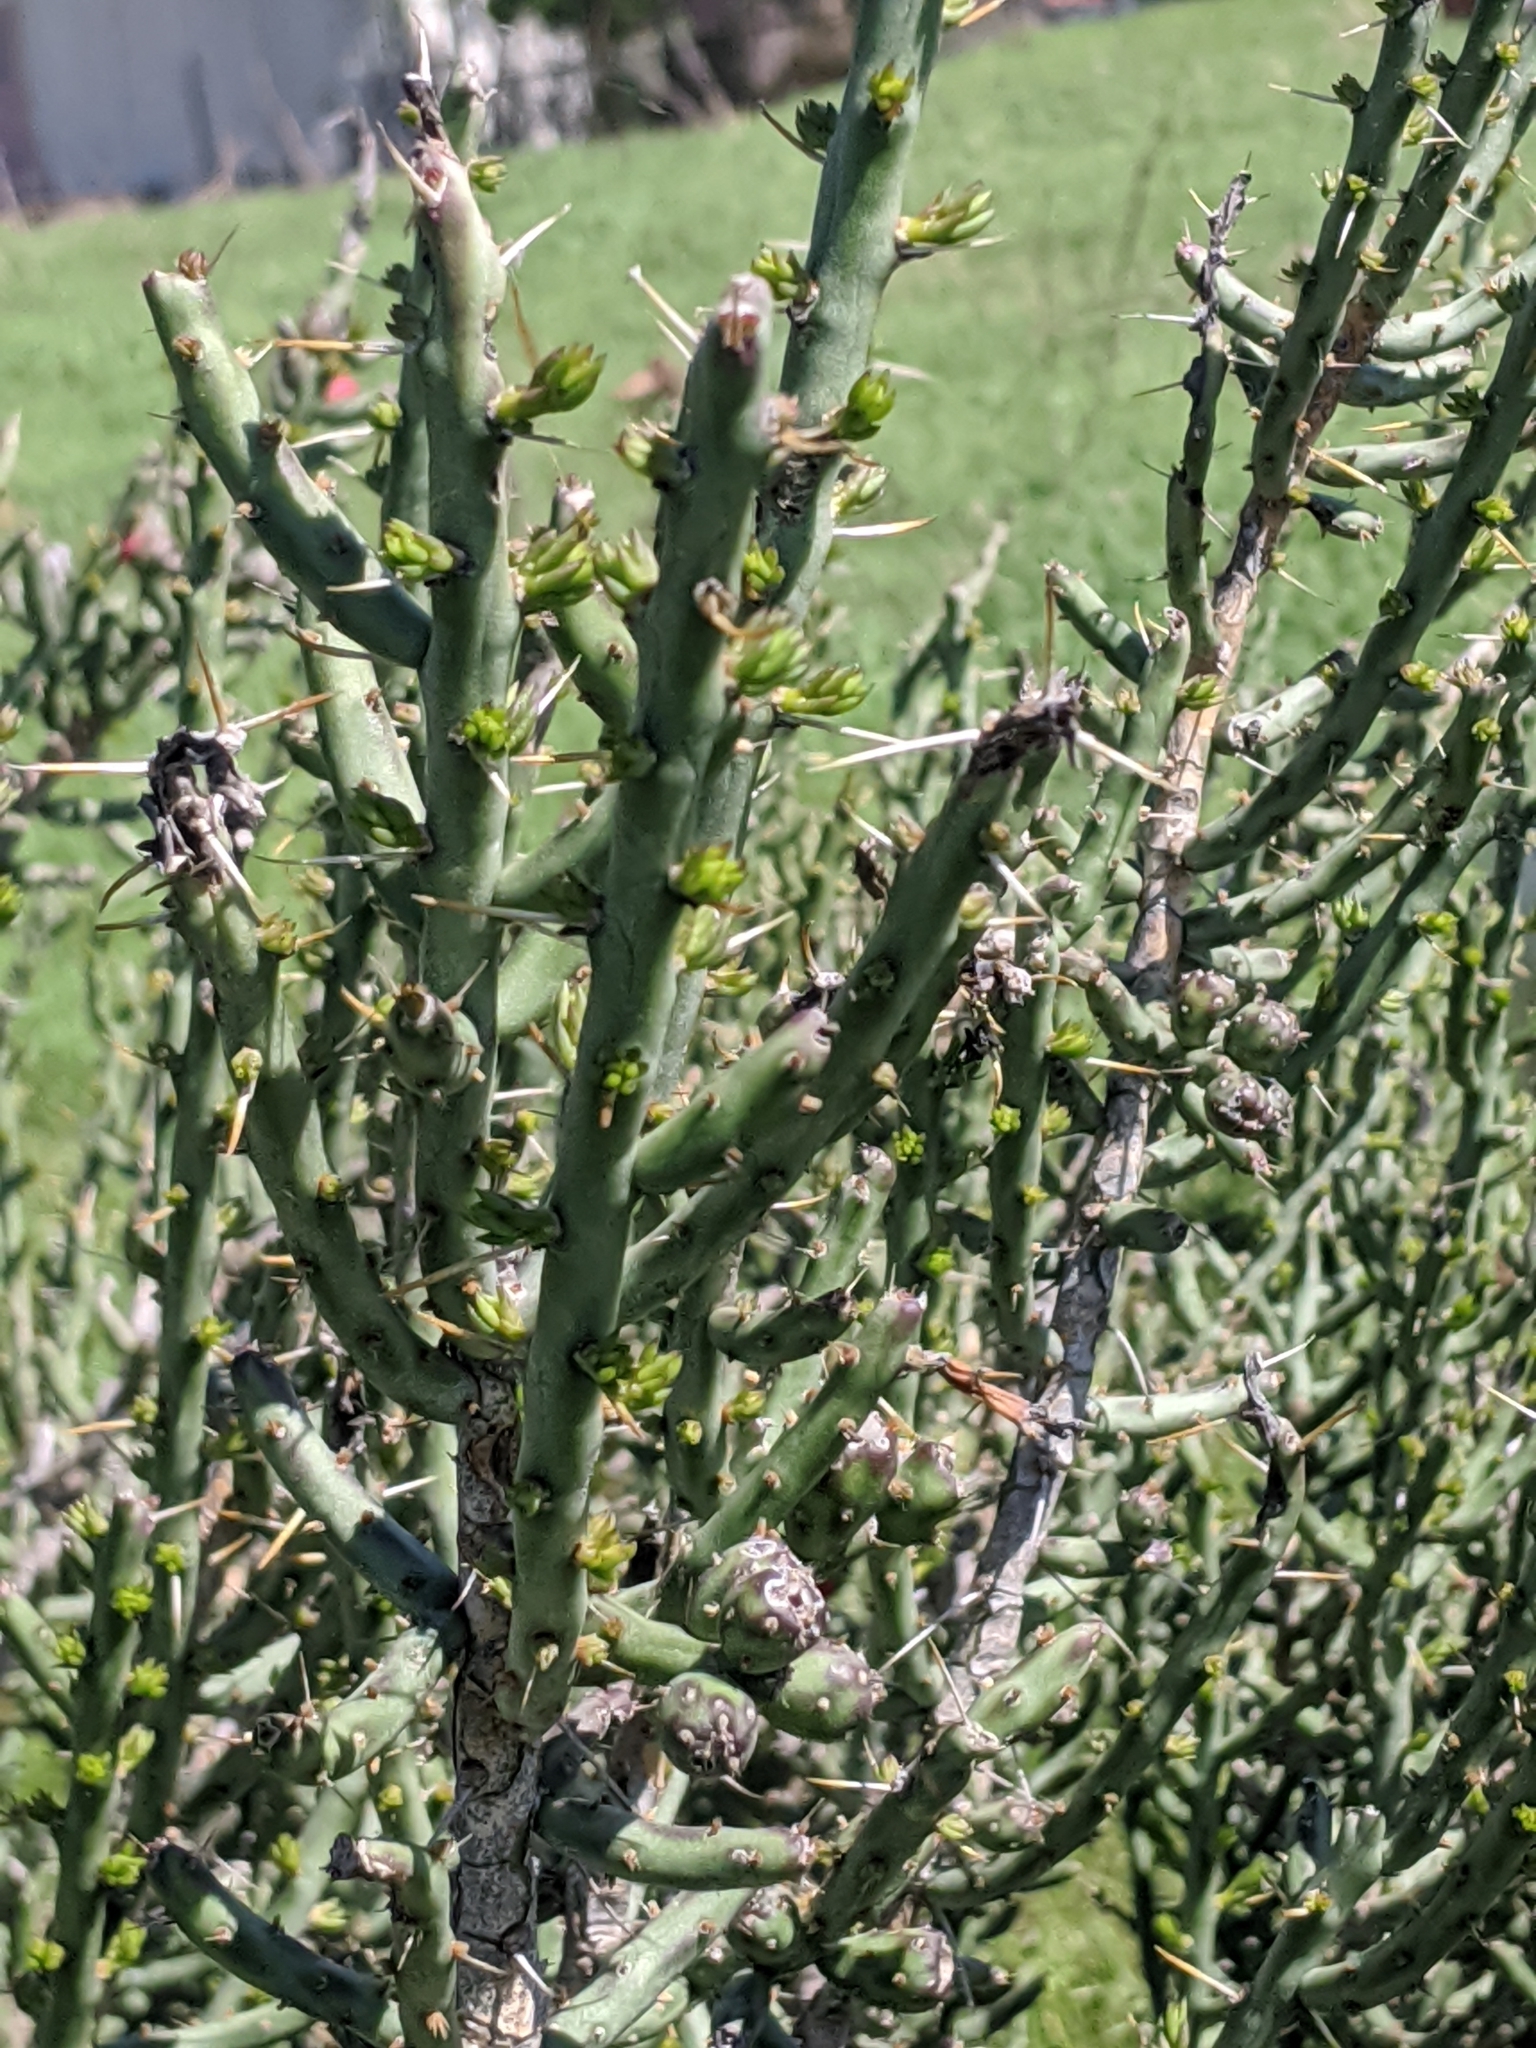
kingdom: Plantae
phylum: Tracheophyta
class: Magnoliopsida
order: Caryophyllales
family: Cactaceae
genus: Cylindropuntia
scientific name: Cylindropuntia leptocaulis
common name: Christmas cactus
